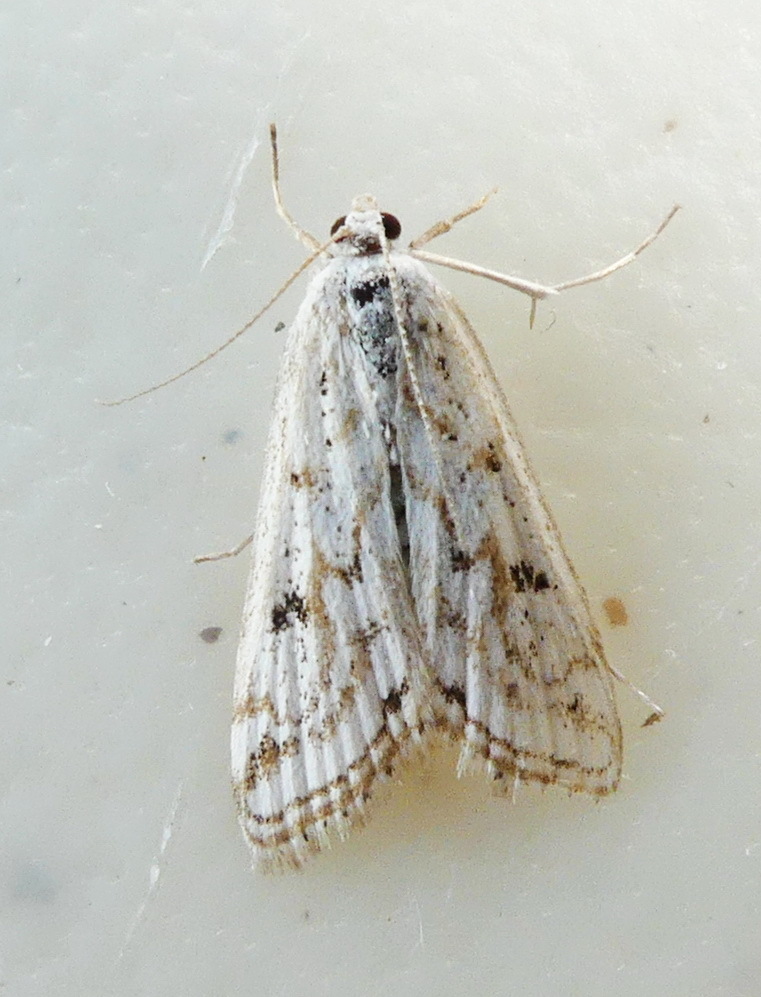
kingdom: Animalia
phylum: Arthropoda
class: Insecta
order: Lepidoptera
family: Crambidae
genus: Parapoynx
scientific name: Parapoynx allionealis
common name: Bladderwort casemaker
